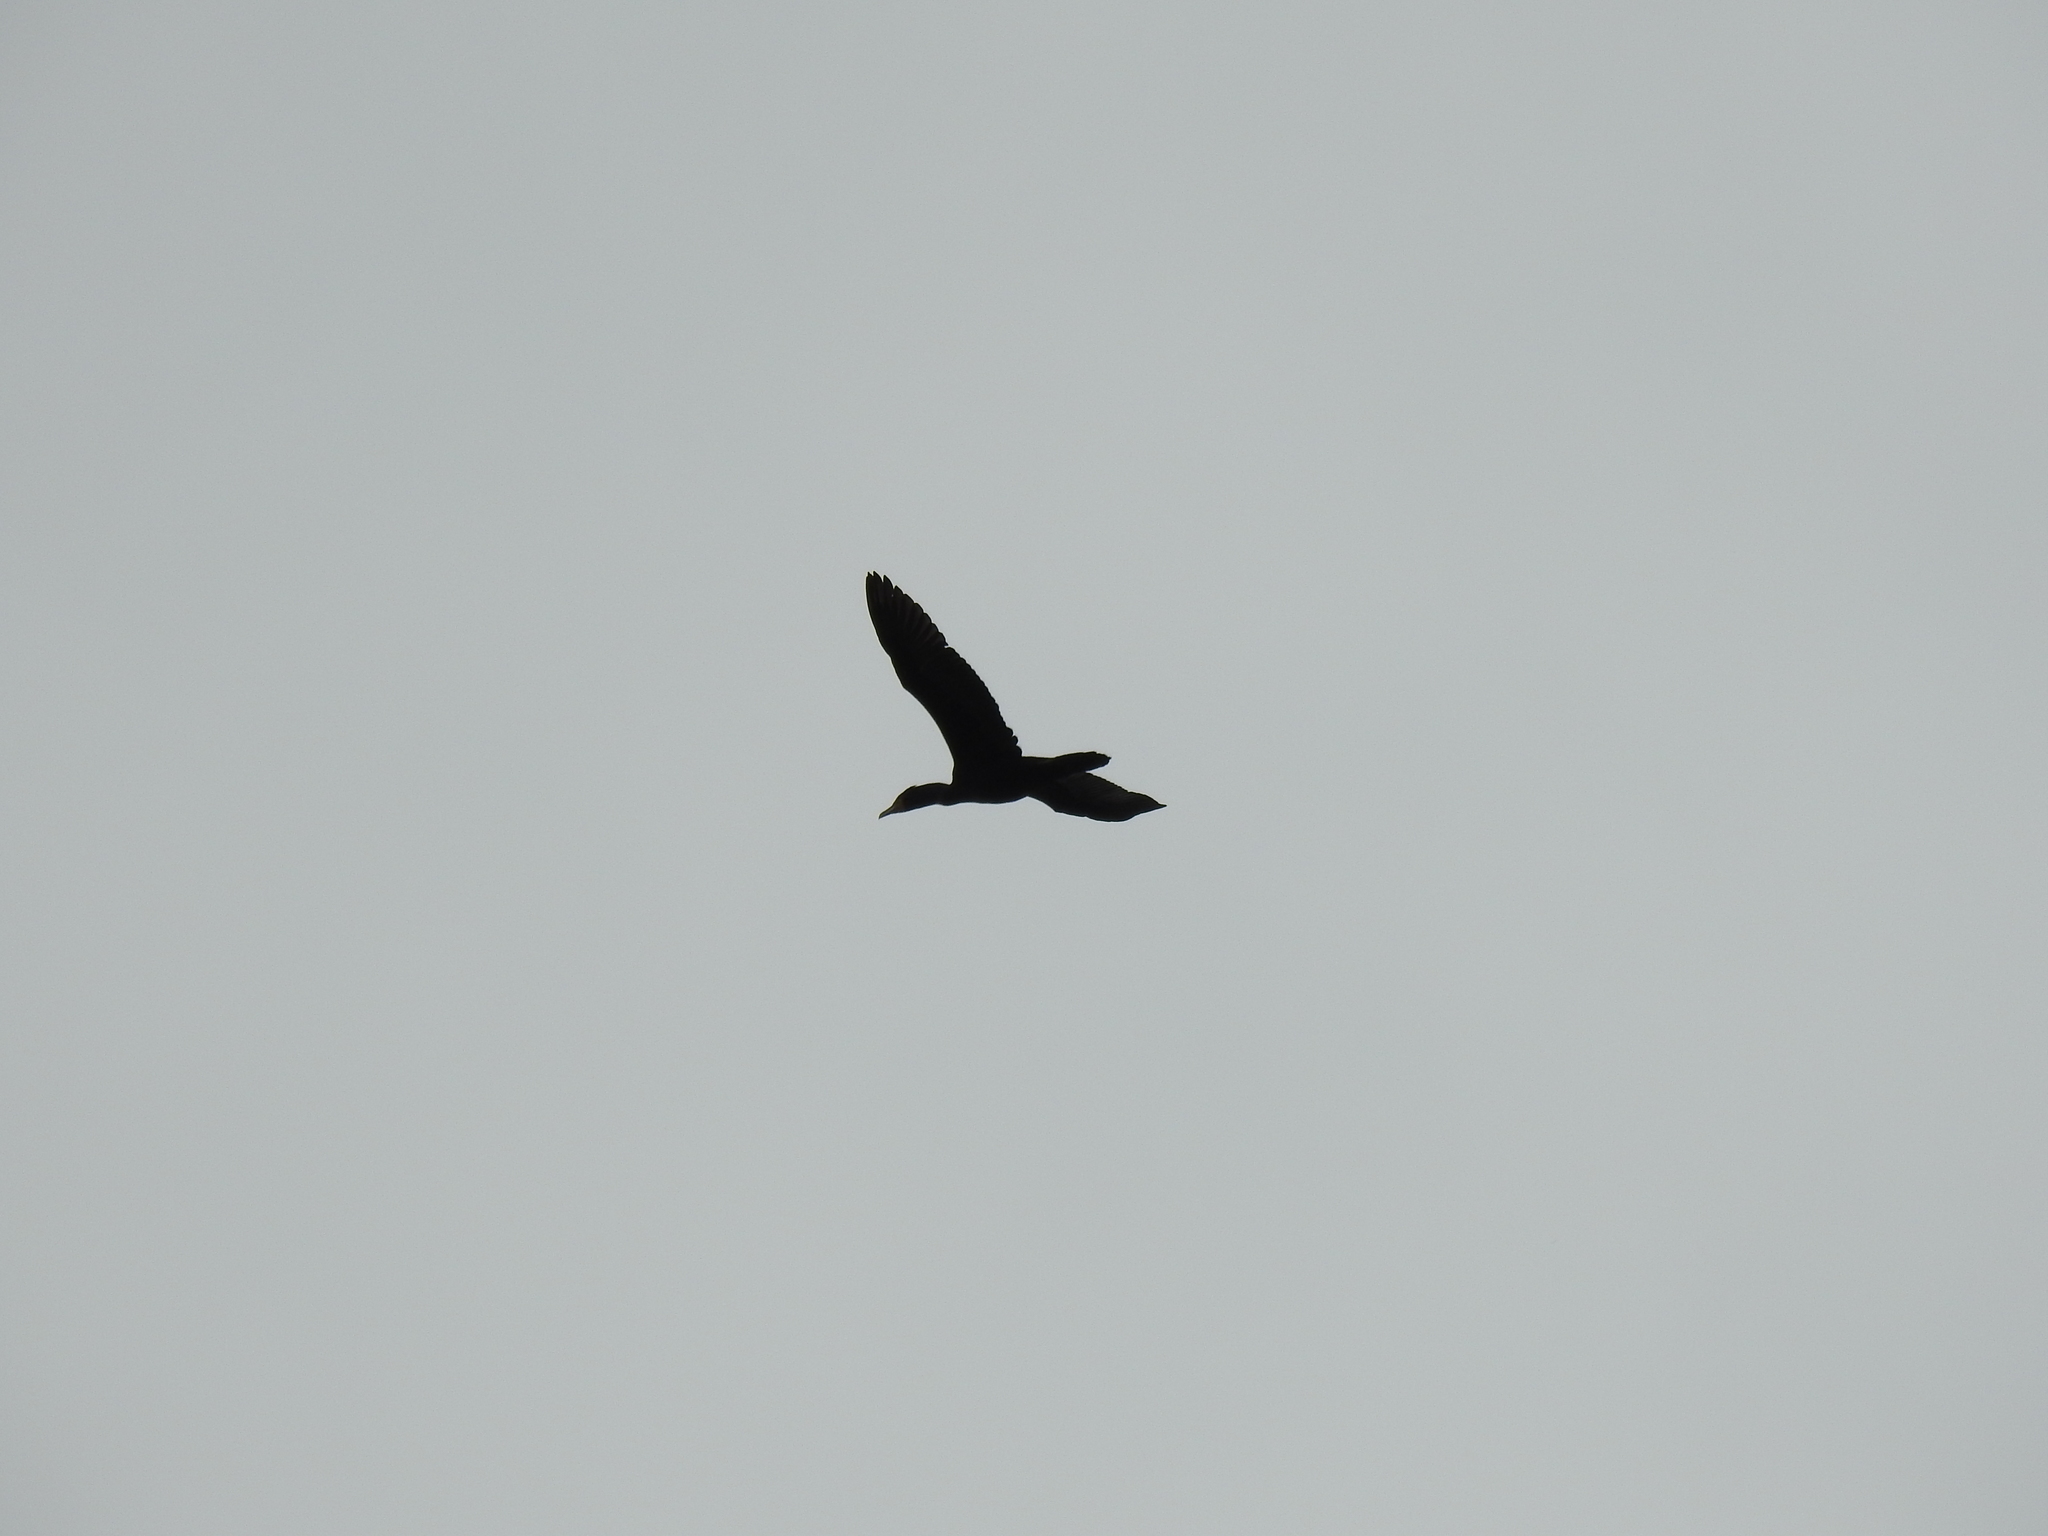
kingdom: Animalia
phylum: Chordata
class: Aves
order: Suliformes
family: Phalacrocoracidae
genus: Phalacrocorax
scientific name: Phalacrocorax auritus
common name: Double-crested cormorant
